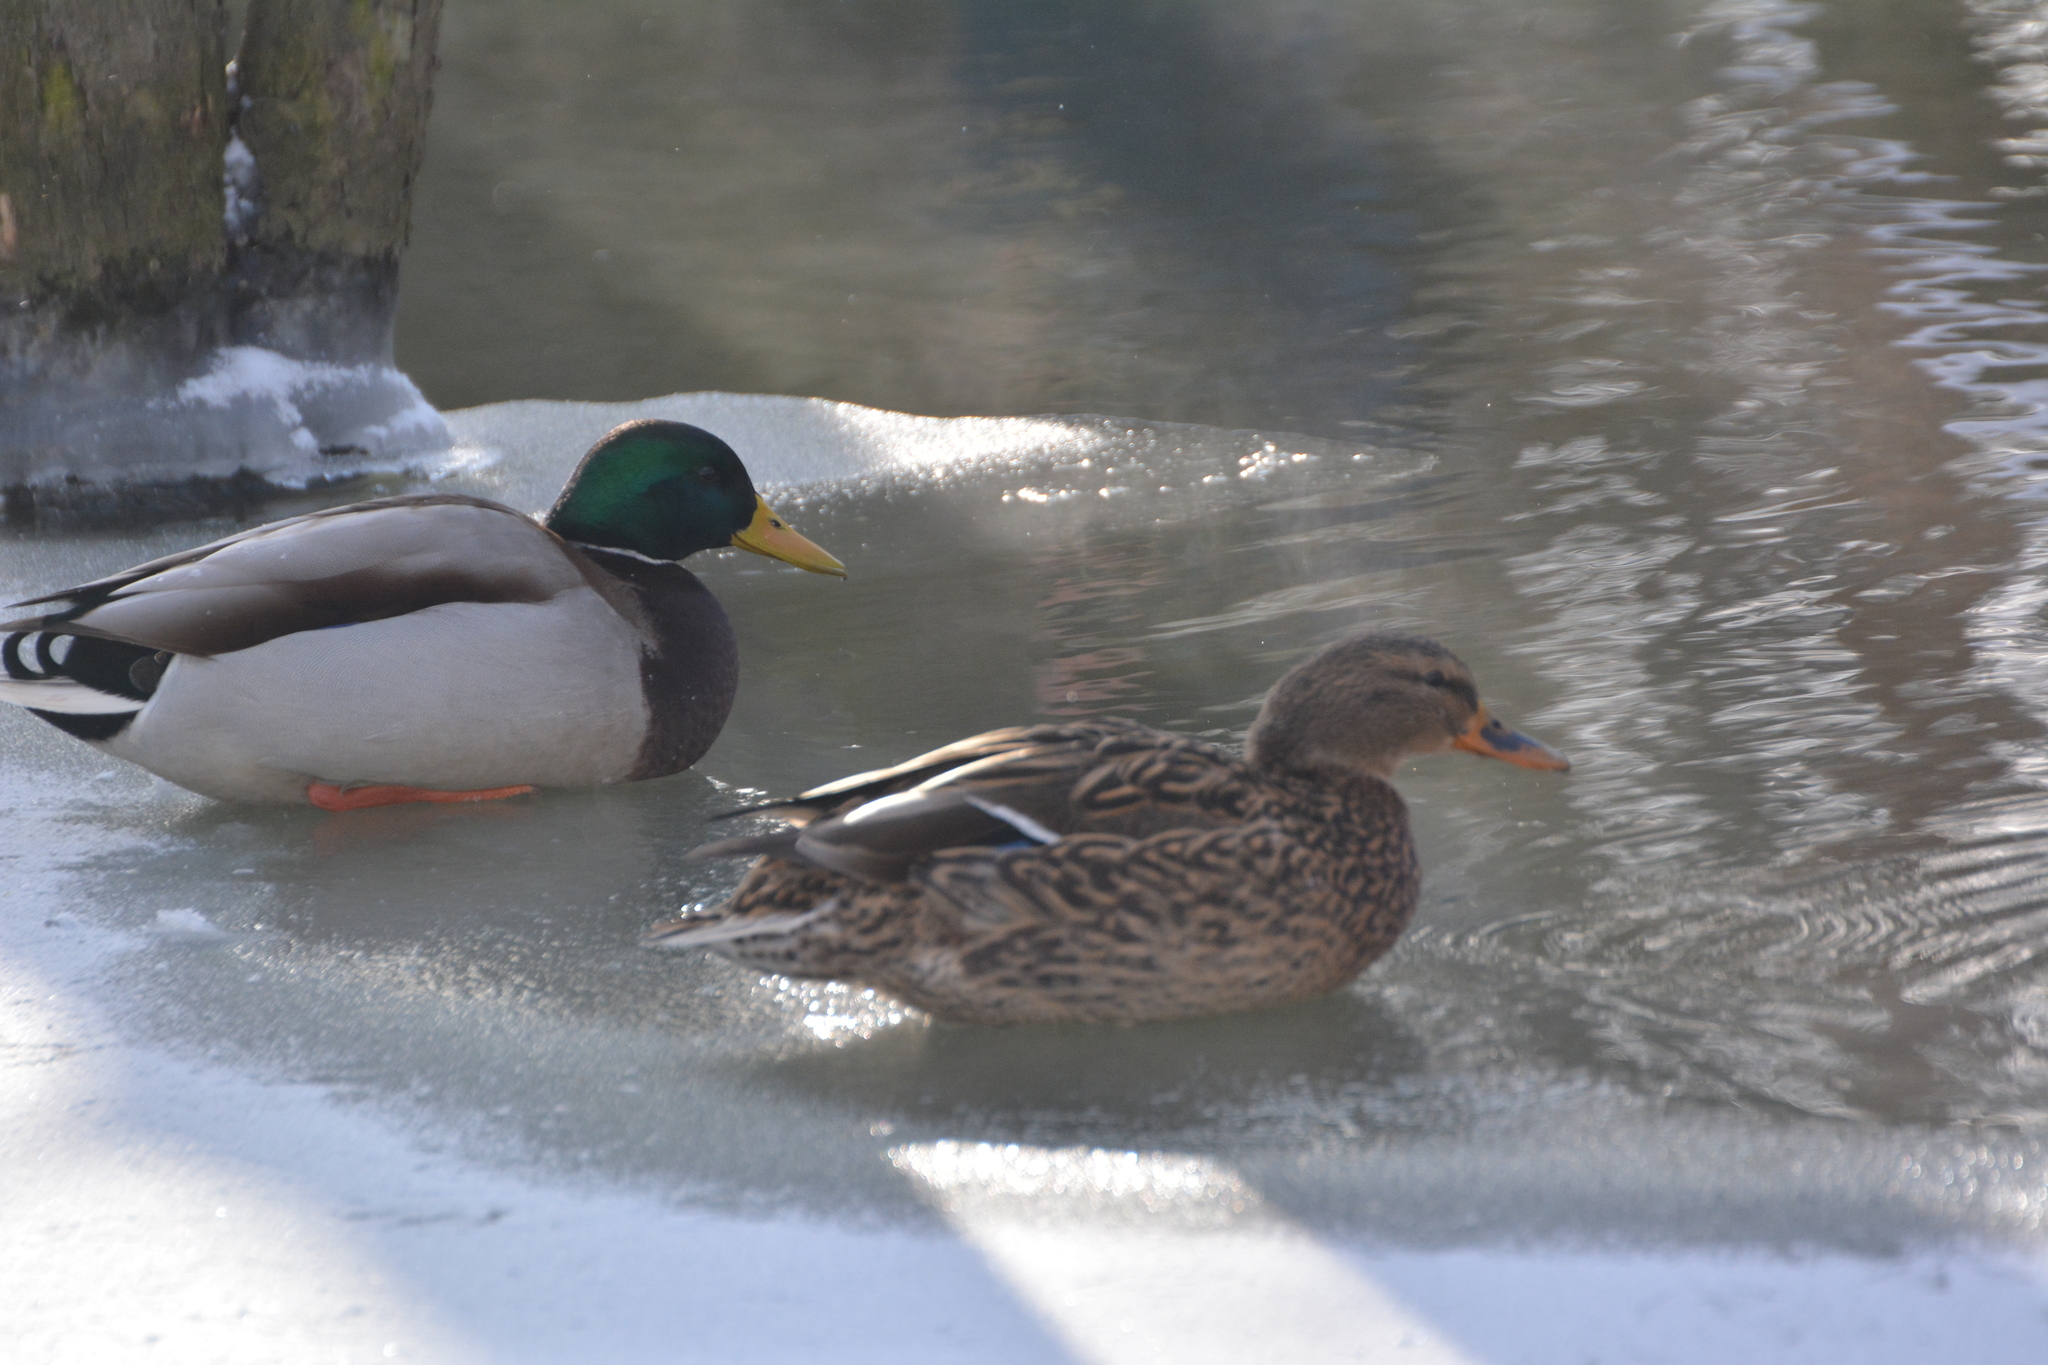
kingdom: Animalia
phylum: Chordata
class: Aves
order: Anseriformes
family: Anatidae
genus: Anas
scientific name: Anas platyrhynchos
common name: Mallard
